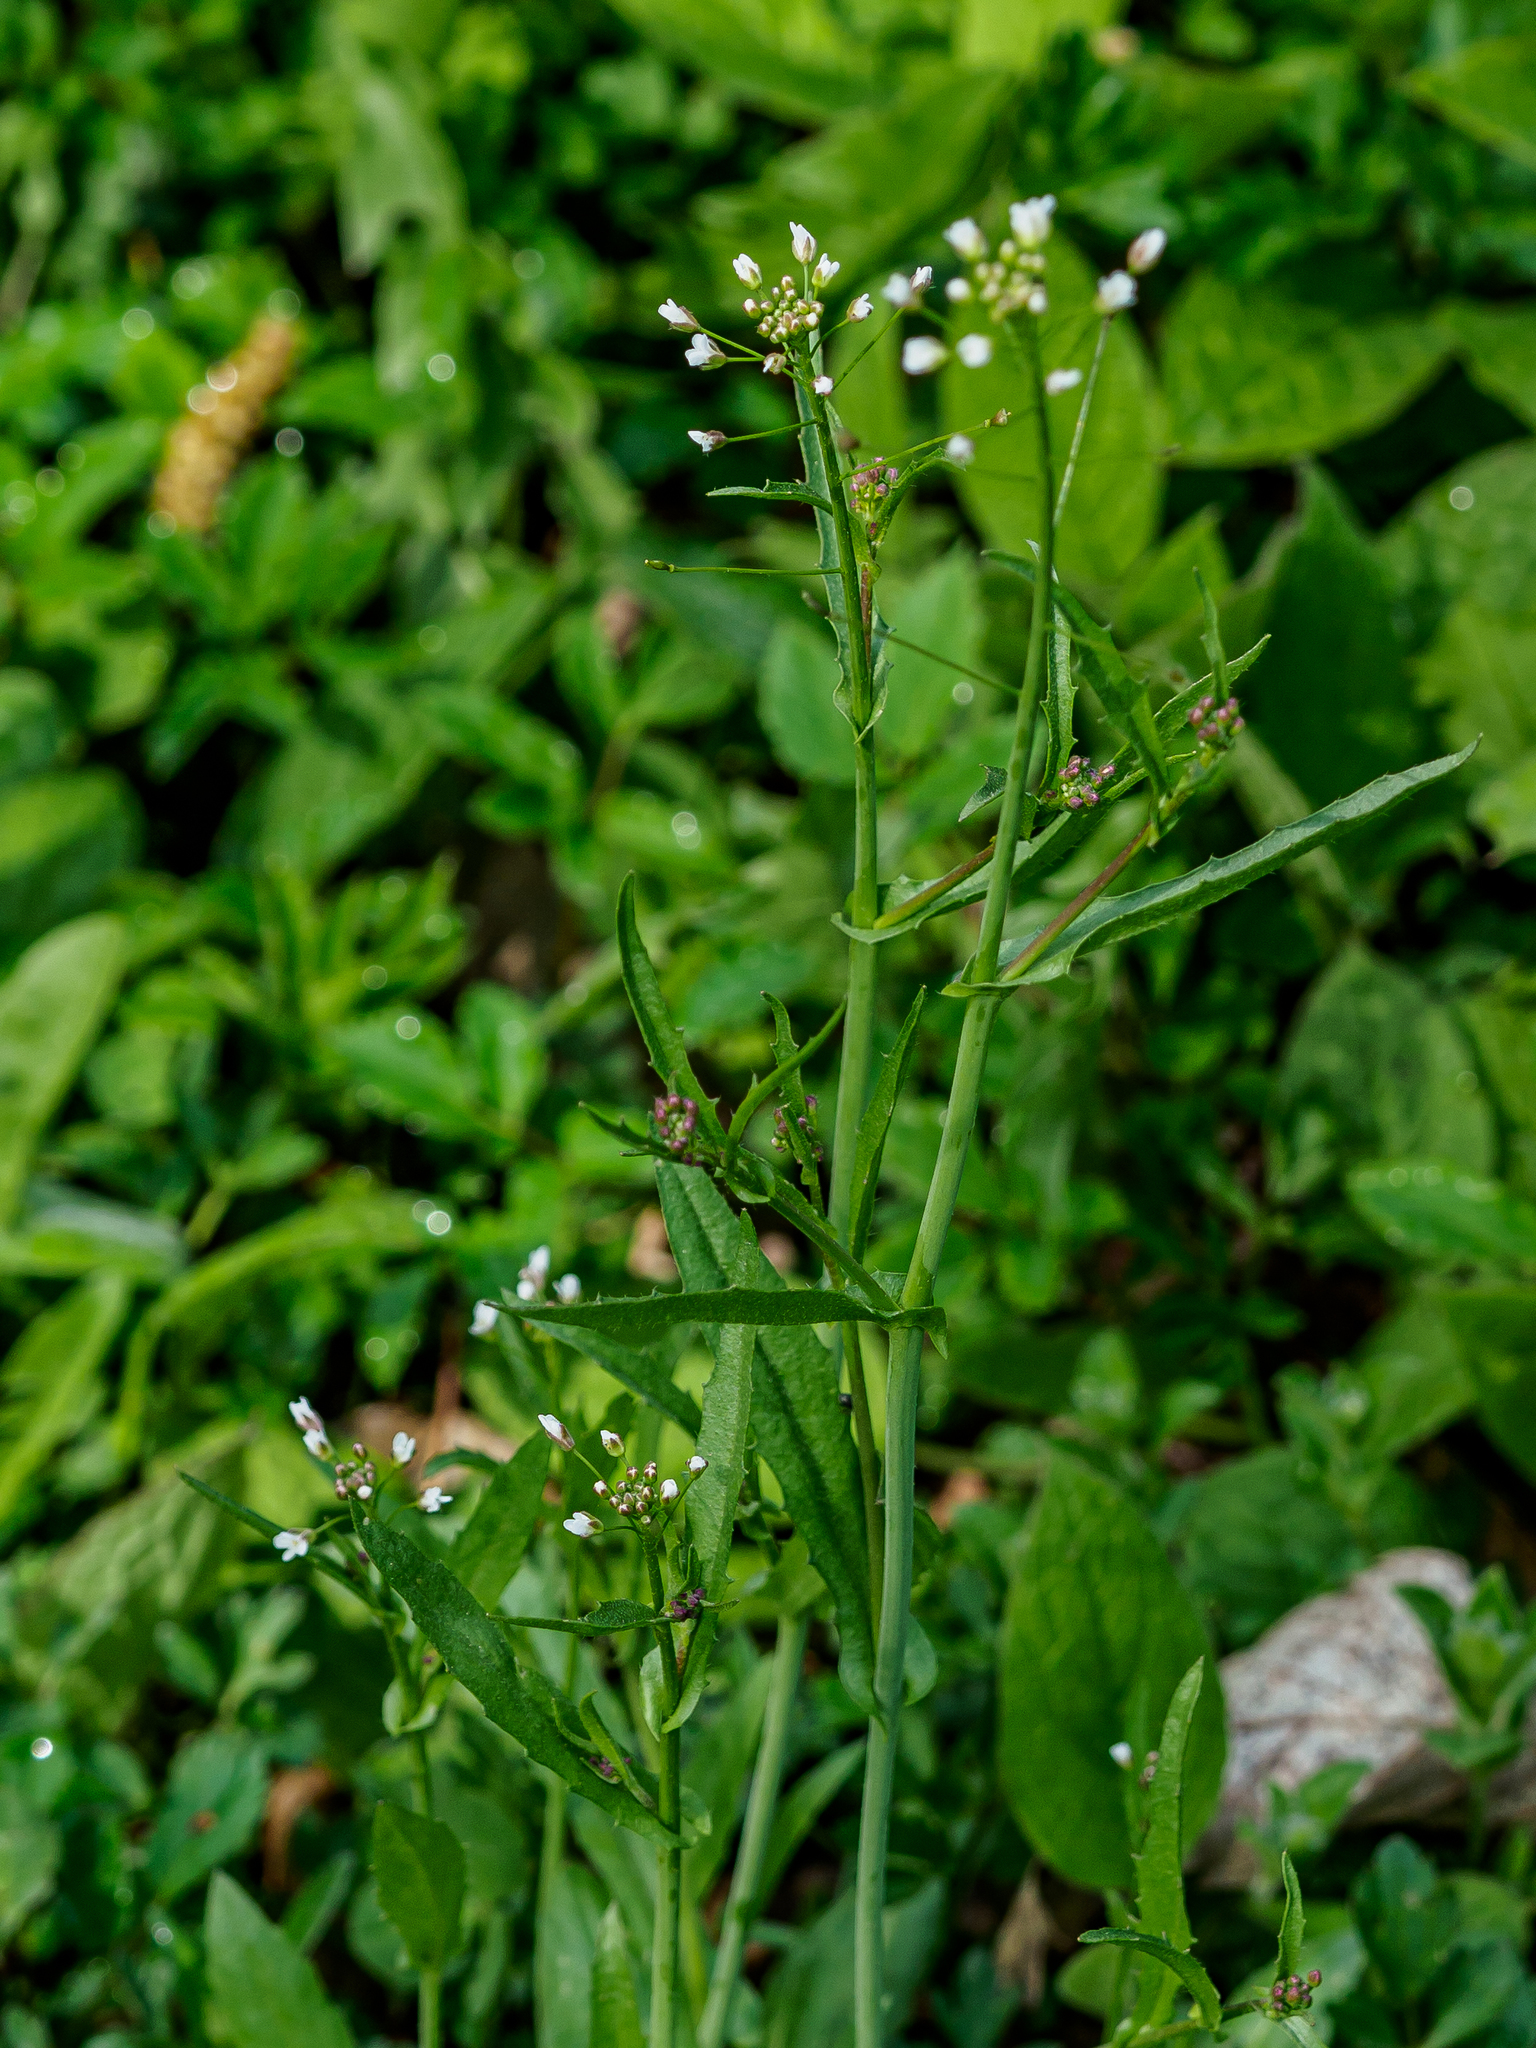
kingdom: Plantae
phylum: Tracheophyta
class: Magnoliopsida
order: Brassicales
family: Brassicaceae
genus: Capsella
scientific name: Capsella bursa-pastoris
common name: Shepherd's purse
